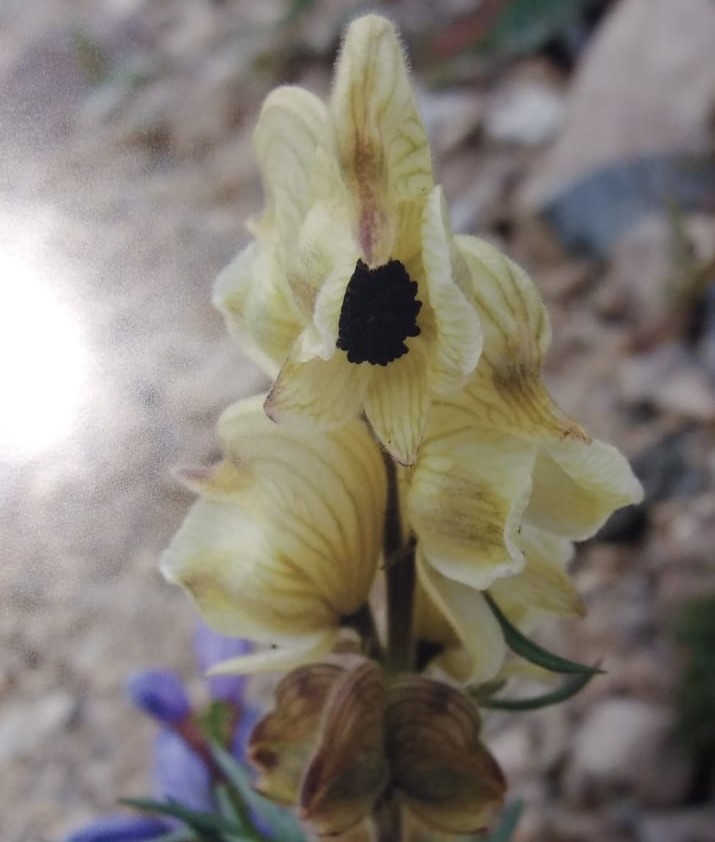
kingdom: Plantae
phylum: Tracheophyta
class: Magnoliopsida
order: Ranunculales
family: Ranunculaceae
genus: Aconitum
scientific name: Aconitum anthora
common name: Yellow monkshood
